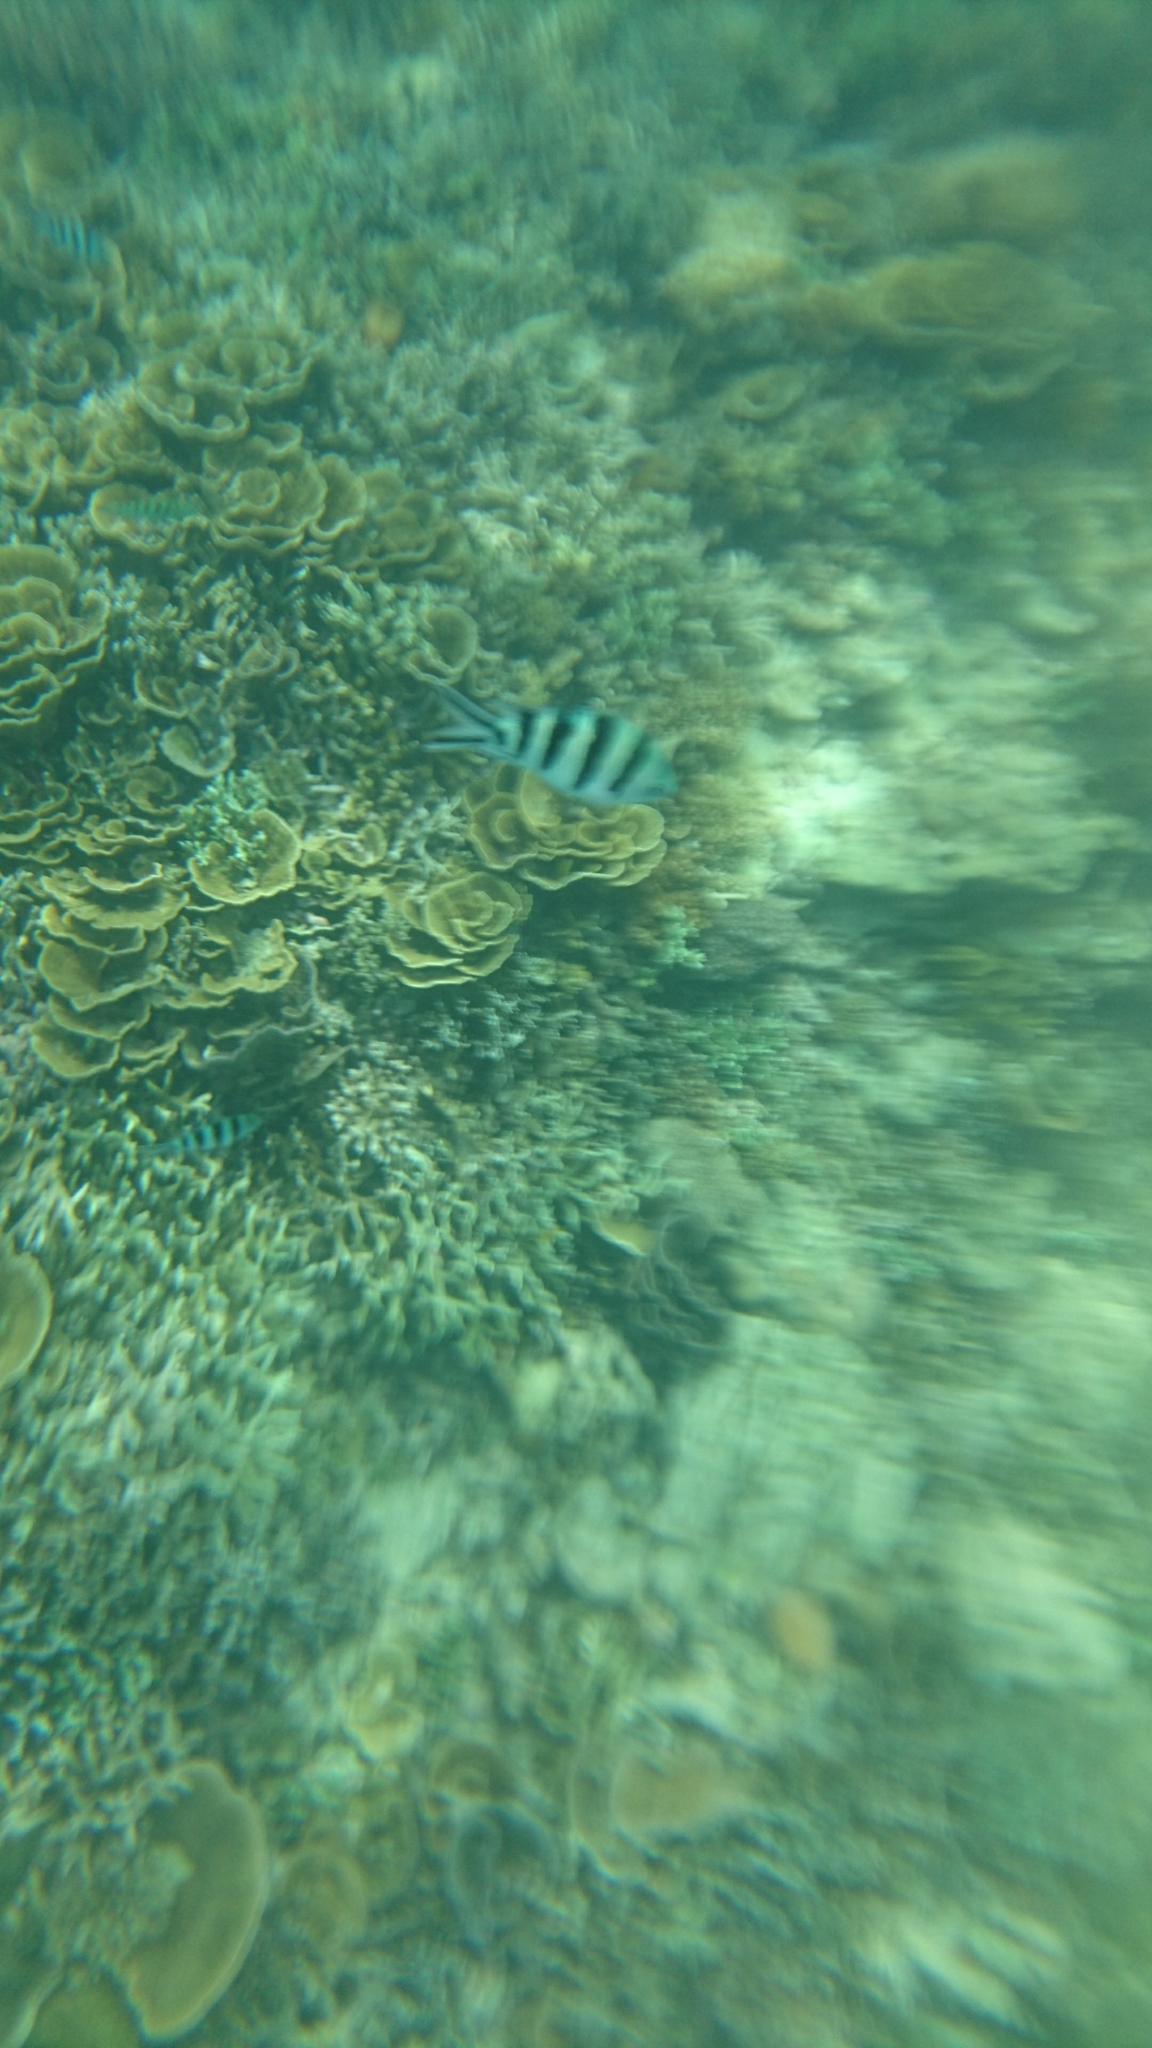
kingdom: Animalia
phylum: Chordata
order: Perciformes
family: Pomacentridae
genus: Abudefduf
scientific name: Abudefduf sexfasciatus
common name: Scissortail sergeant
